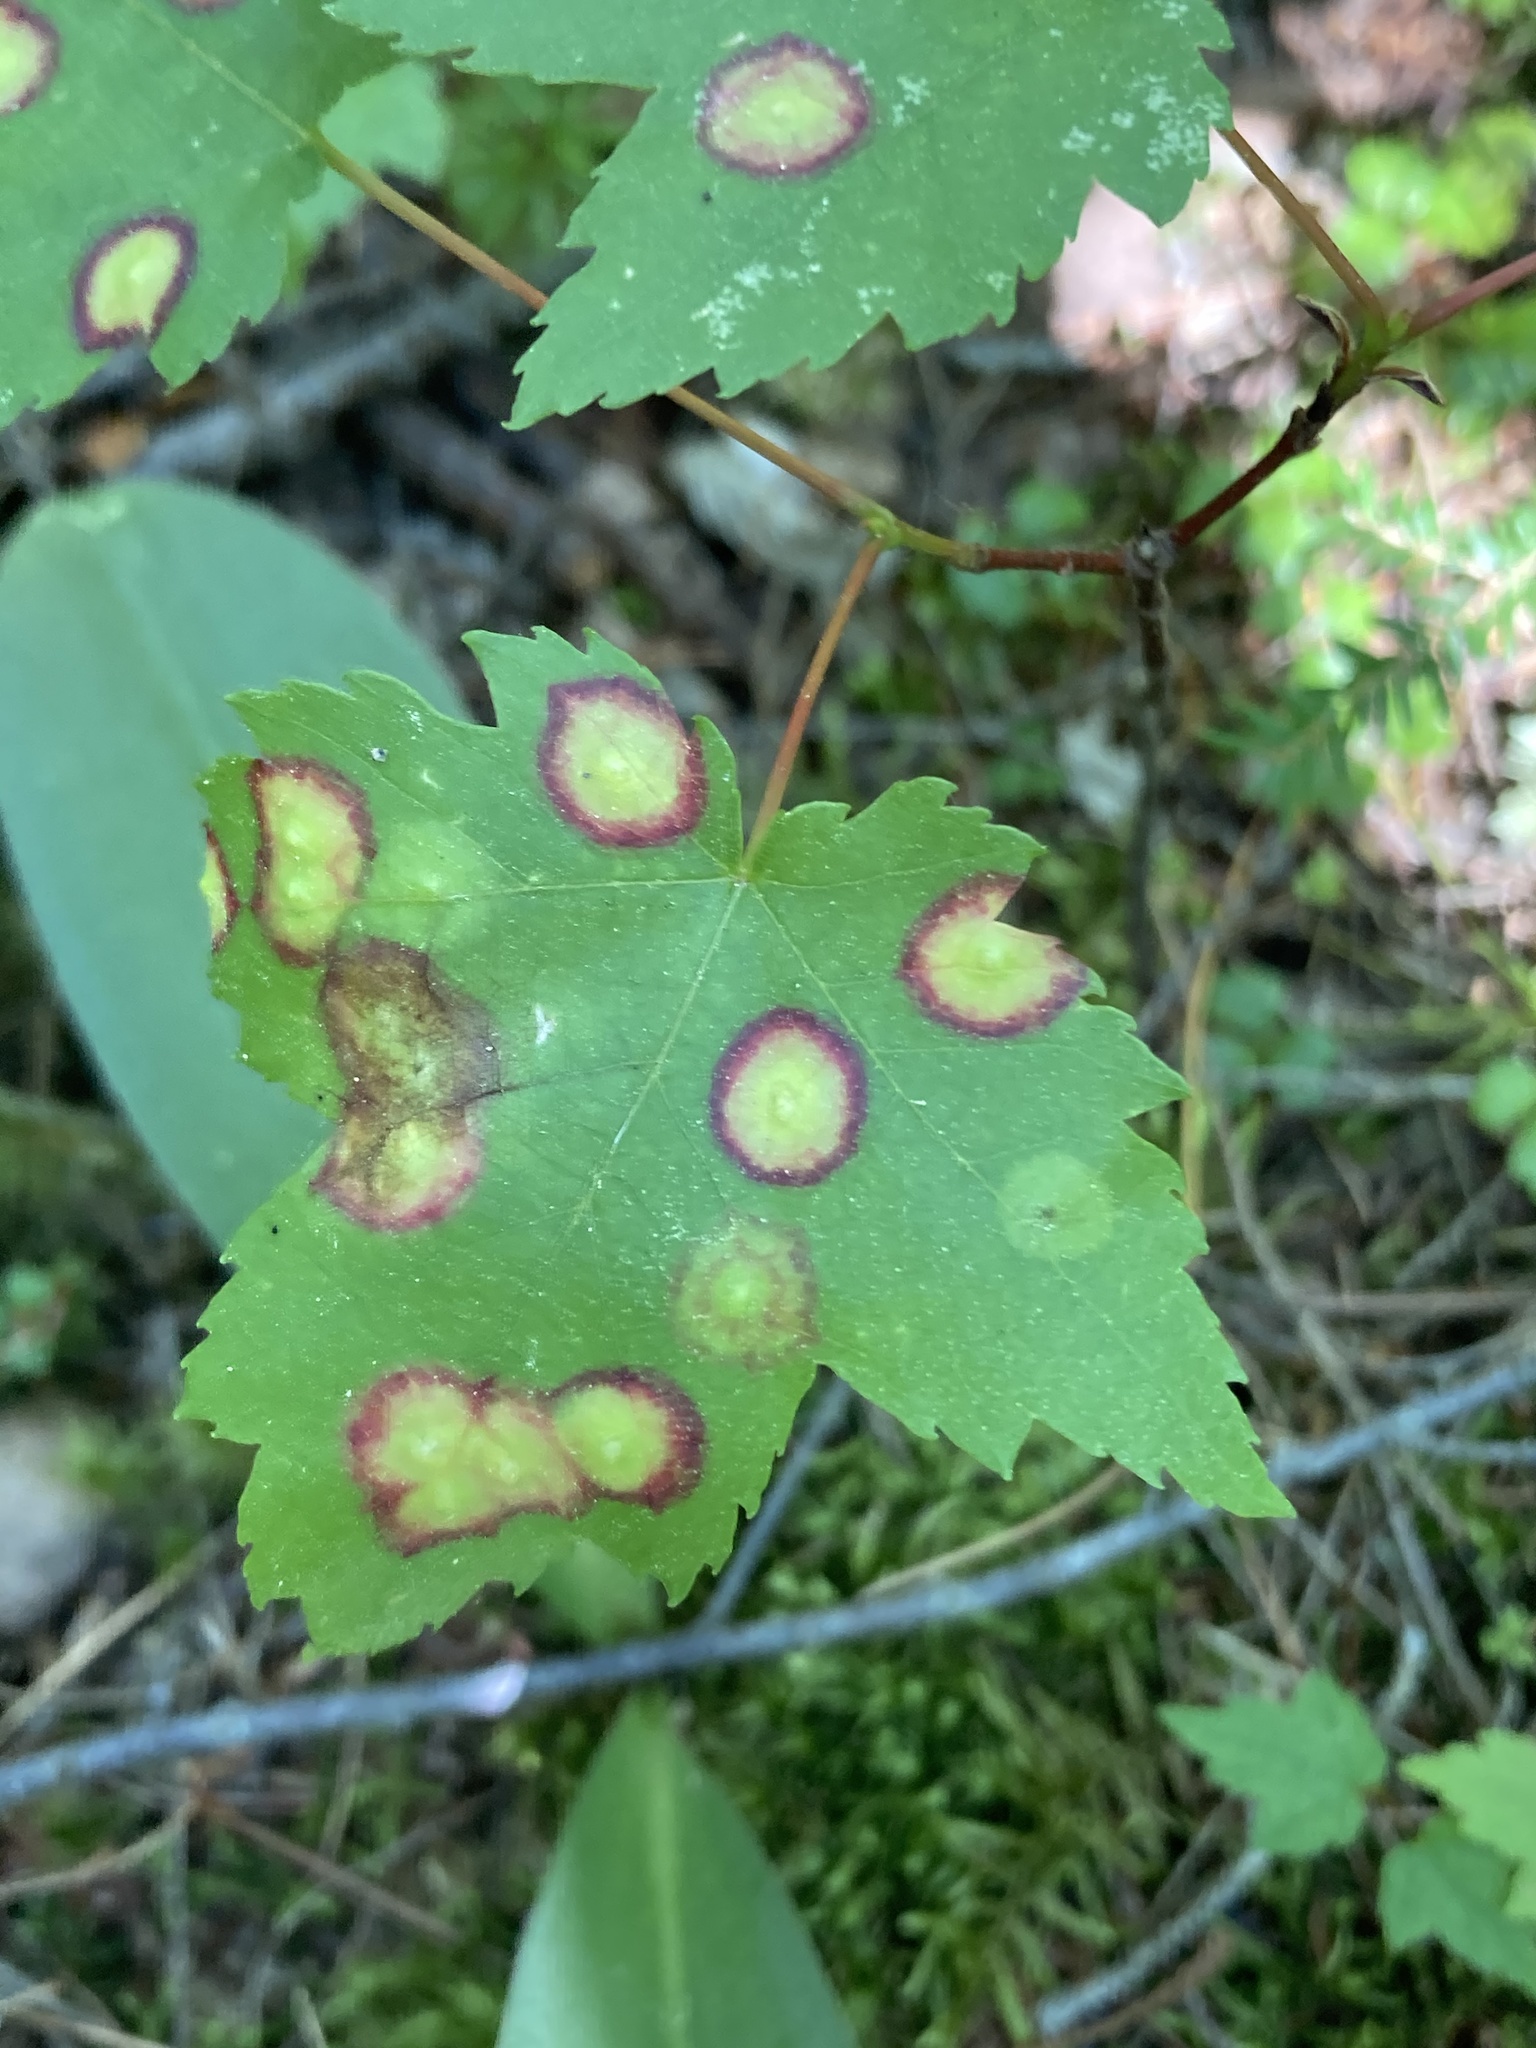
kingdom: Animalia
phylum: Arthropoda
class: Insecta
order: Diptera
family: Cecidomyiidae
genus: Acericecis
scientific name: Acericecis ocellaris
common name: Ocellate gall midge
